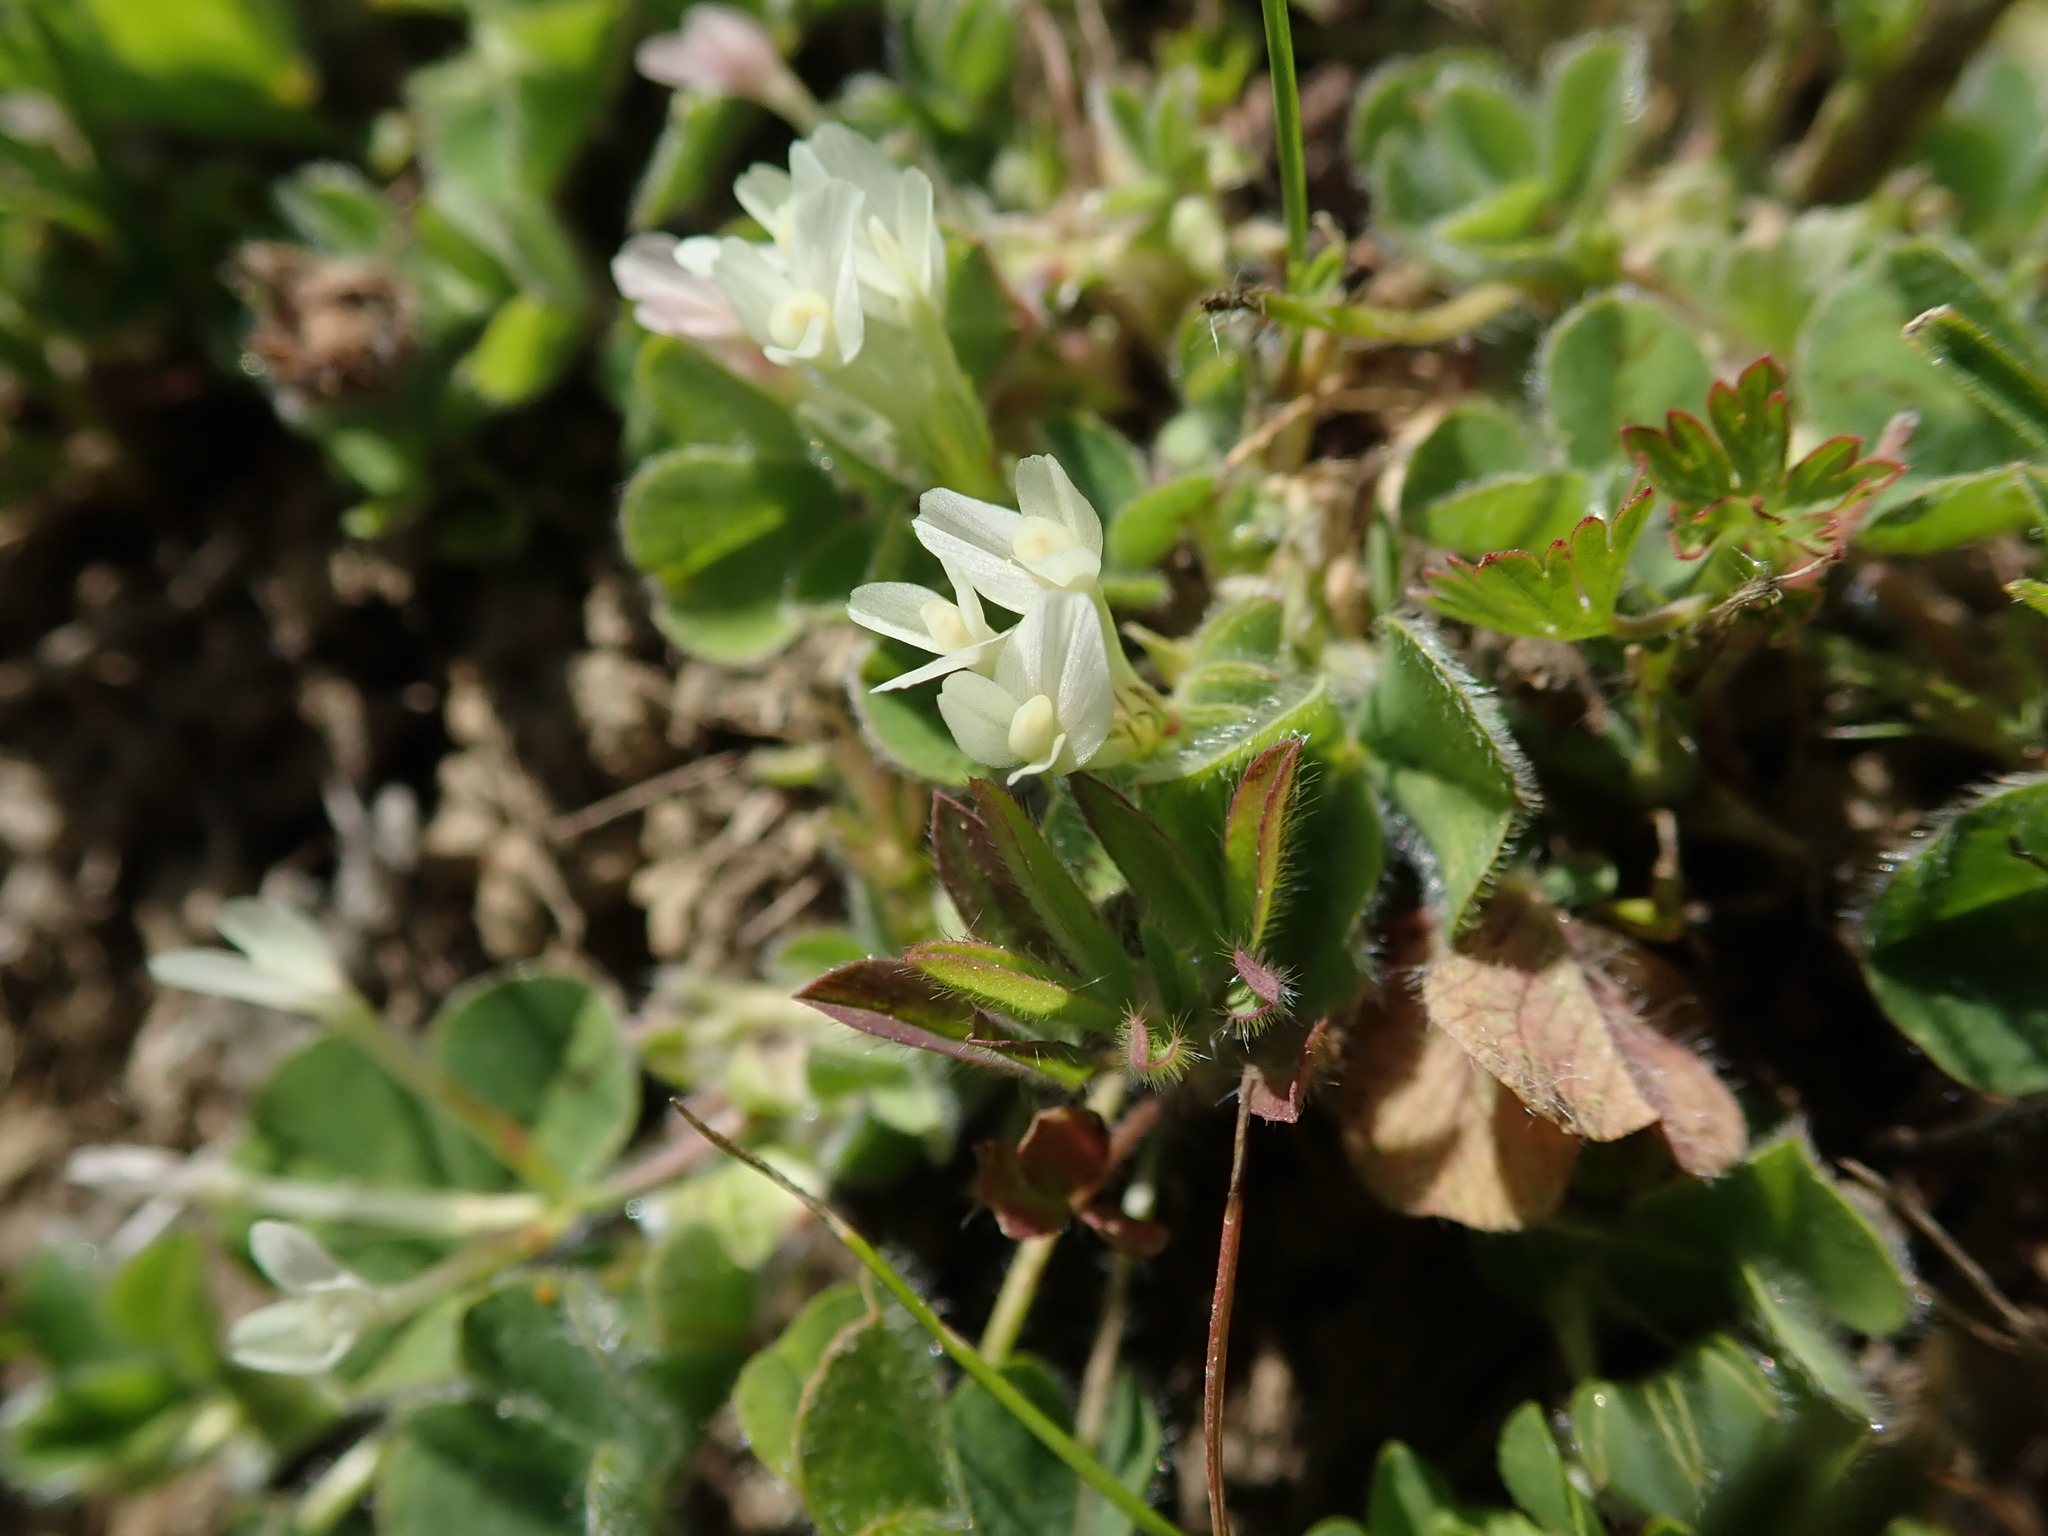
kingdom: Plantae
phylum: Tracheophyta
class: Magnoliopsida
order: Fabales
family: Fabaceae
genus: Trifolium
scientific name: Trifolium subterraneum
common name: Subterranean clover
